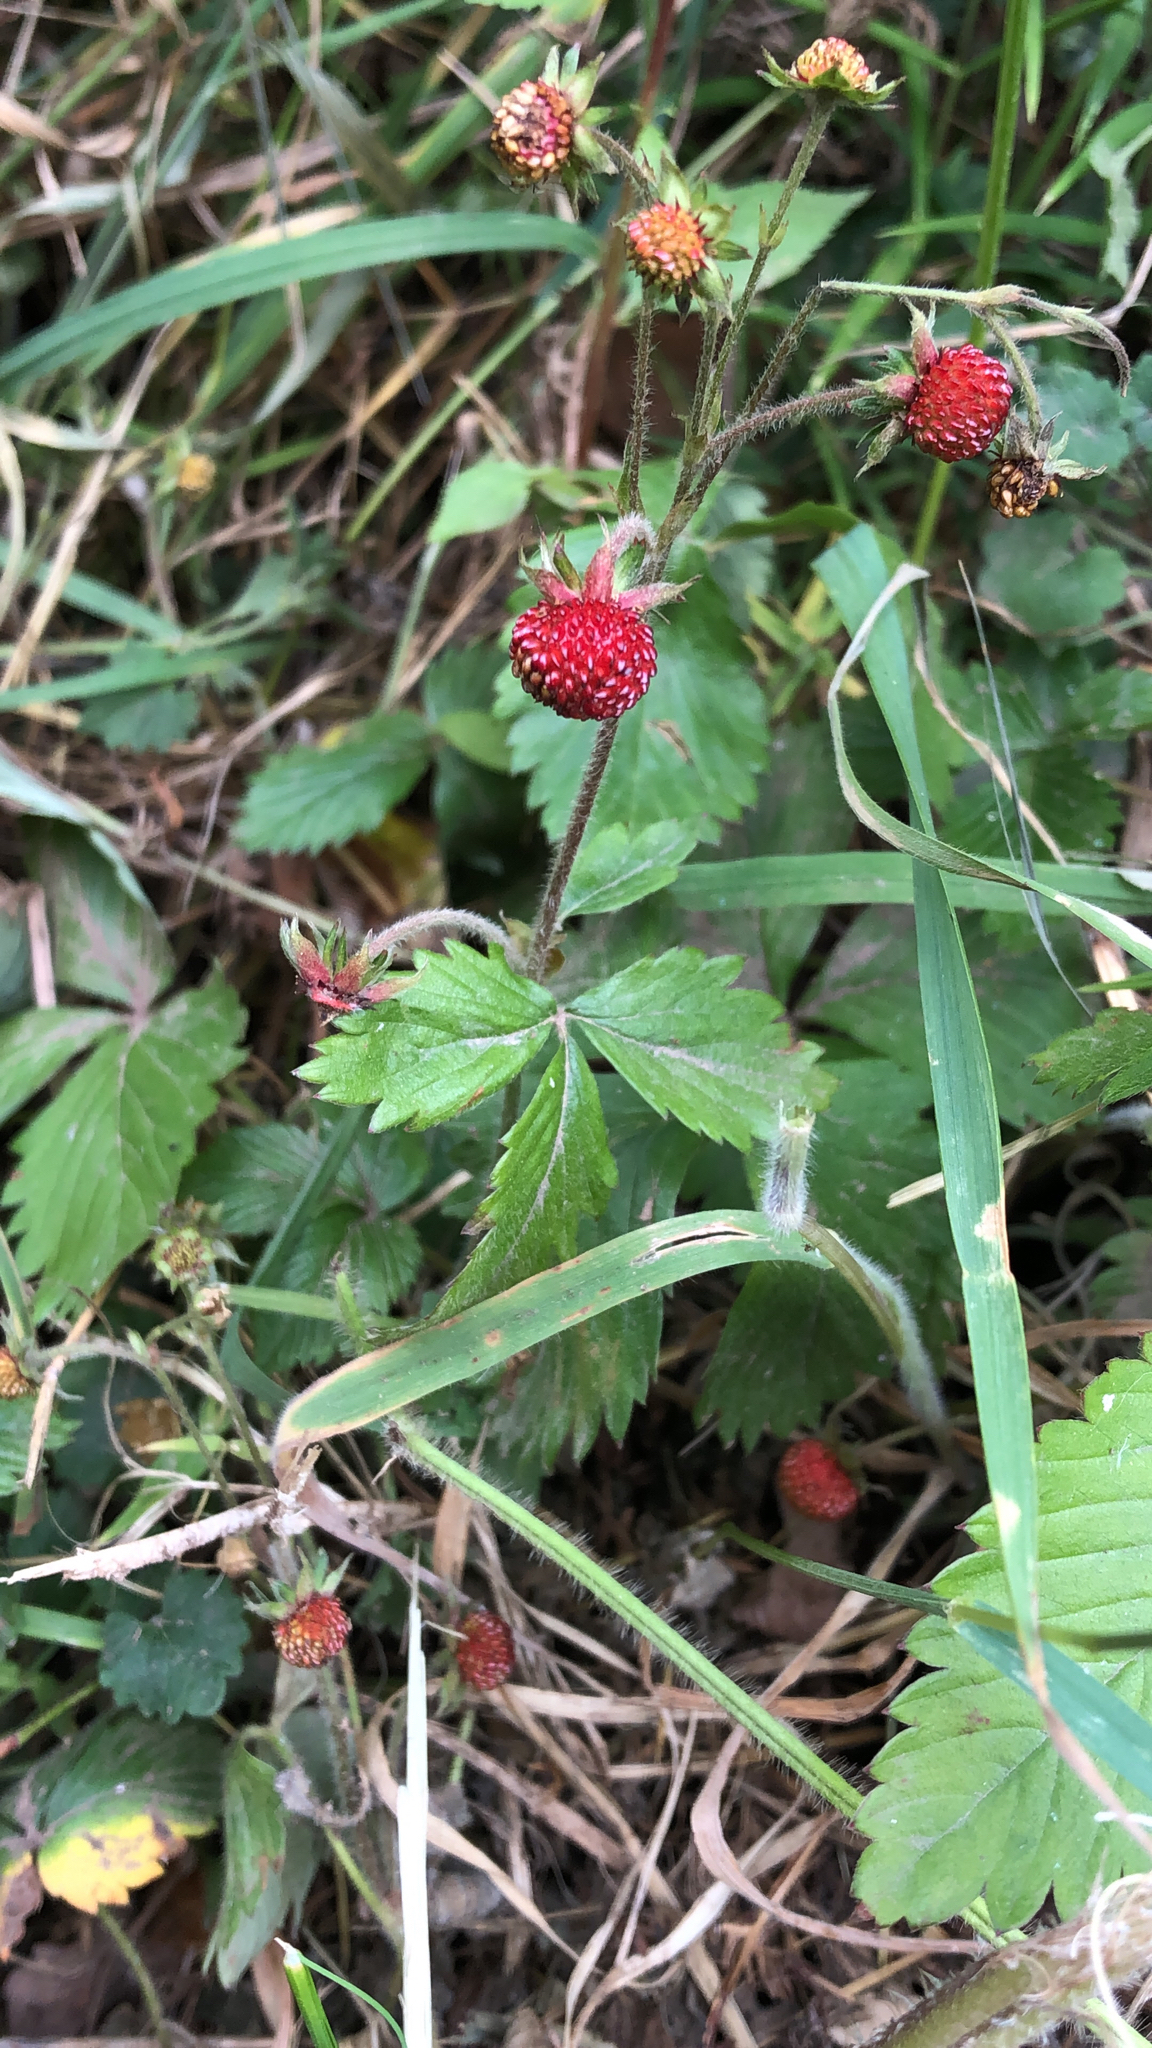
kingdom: Plantae
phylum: Tracheophyta
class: Magnoliopsida
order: Rosales
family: Rosaceae
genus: Fragaria
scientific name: Fragaria vesca
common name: Wild strawberry
